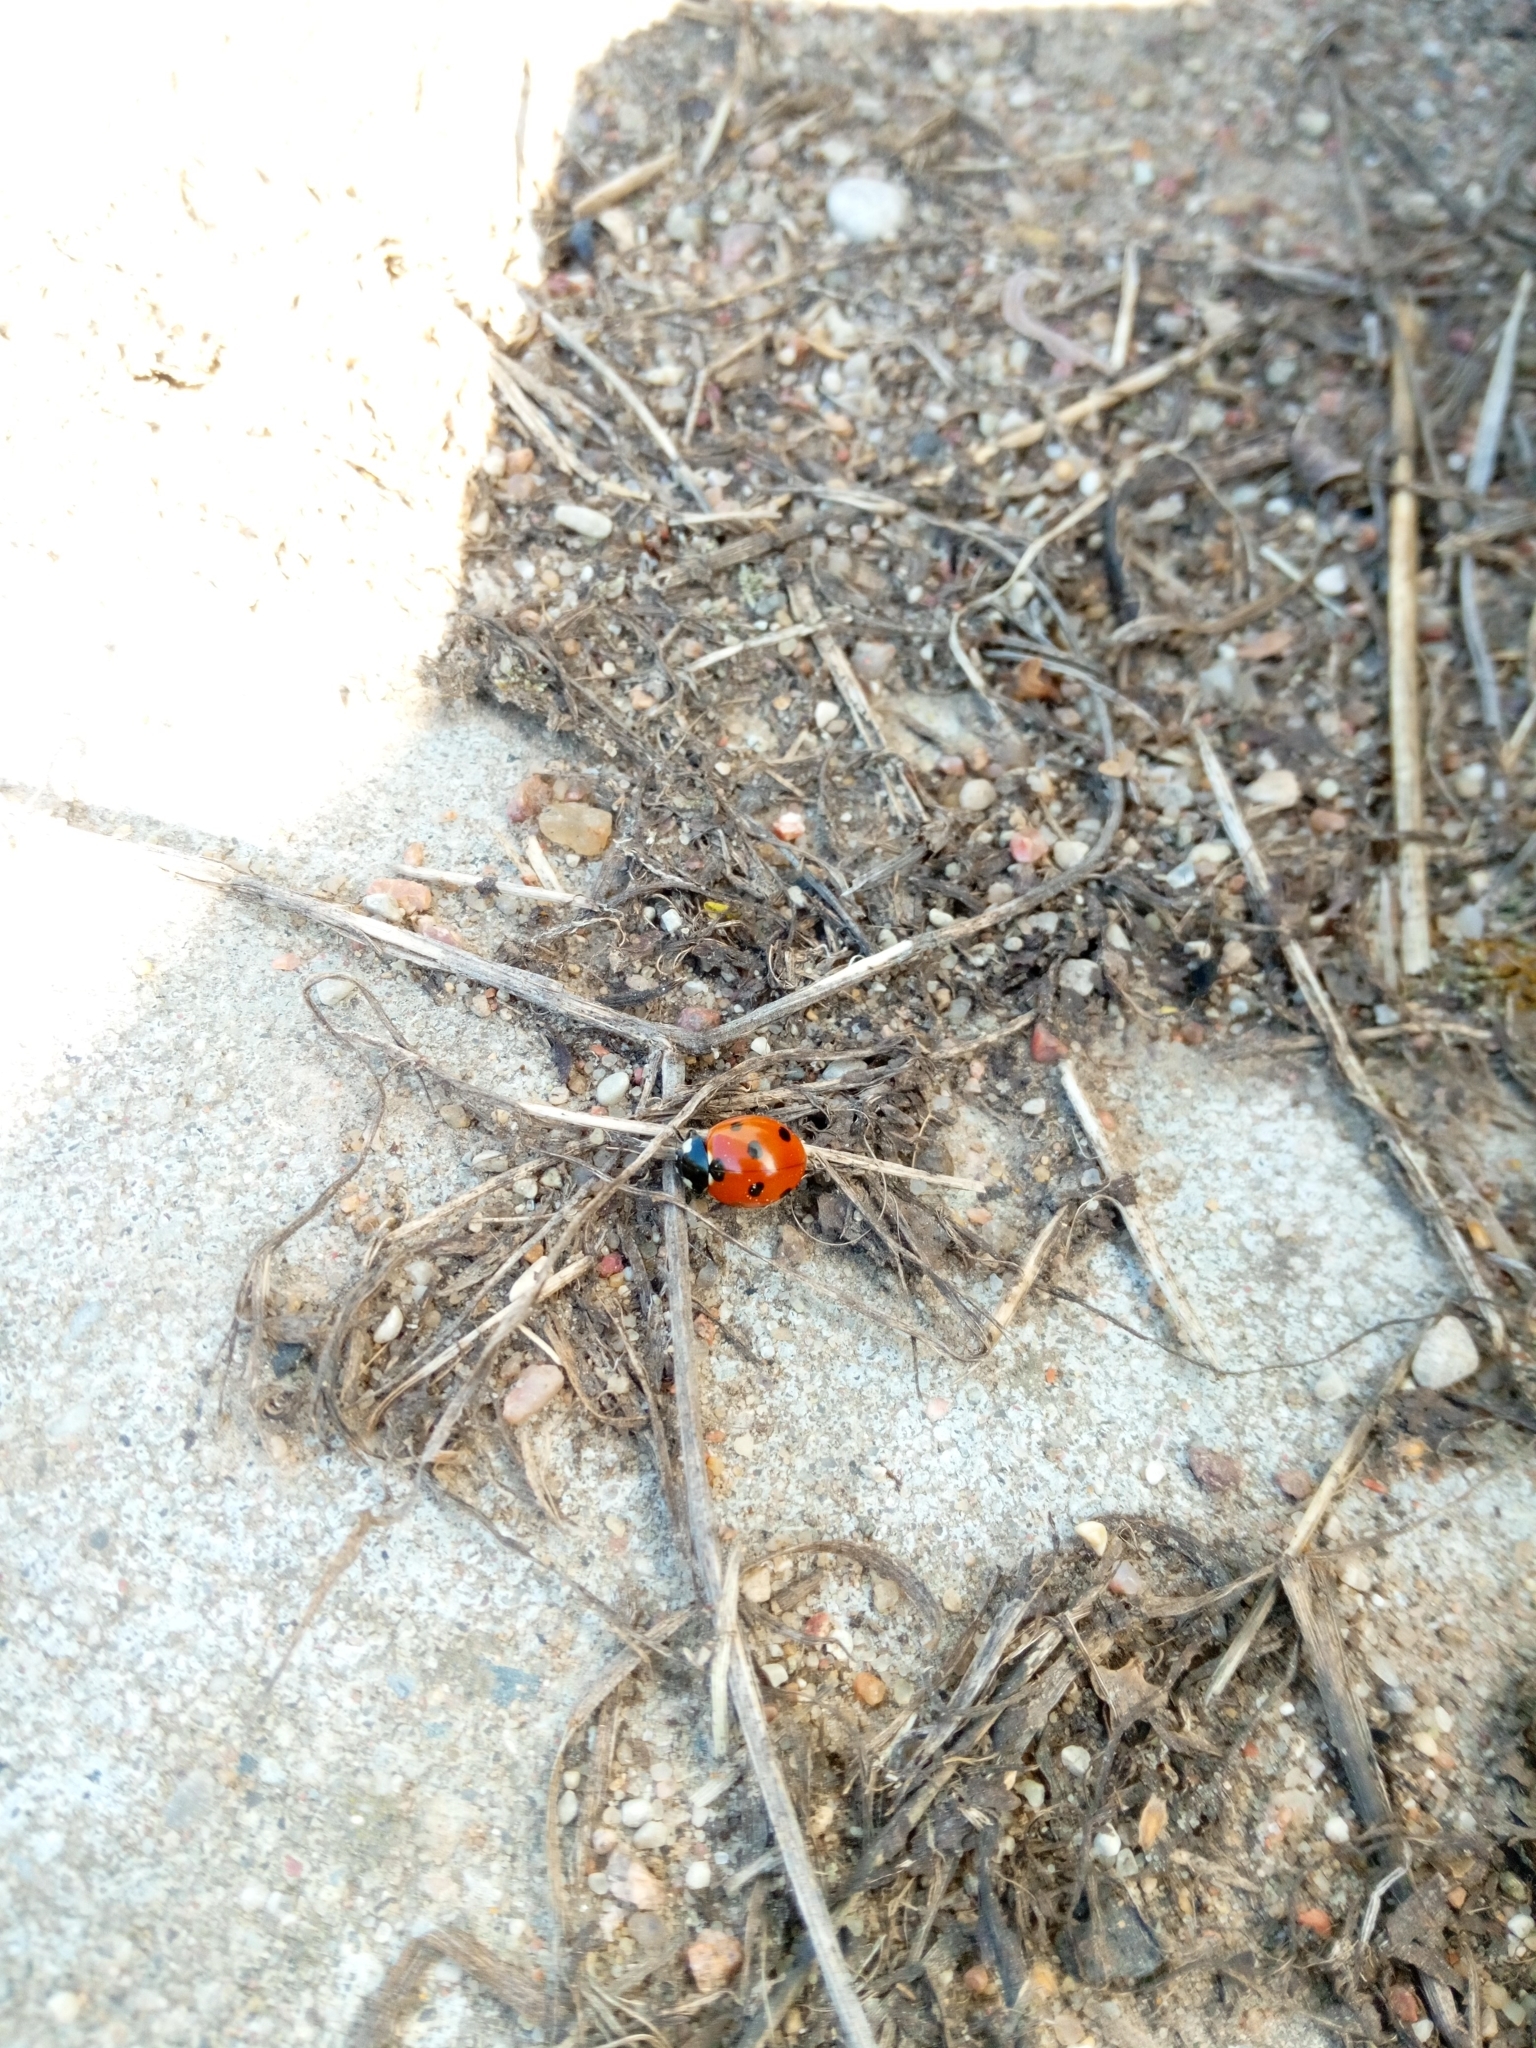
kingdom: Animalia
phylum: Arthropoda
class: Insecta
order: Coleoptera
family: Coccinellidae
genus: Coccinella
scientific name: Coccinella septempunctata
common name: Sevenspotted lady beetle
